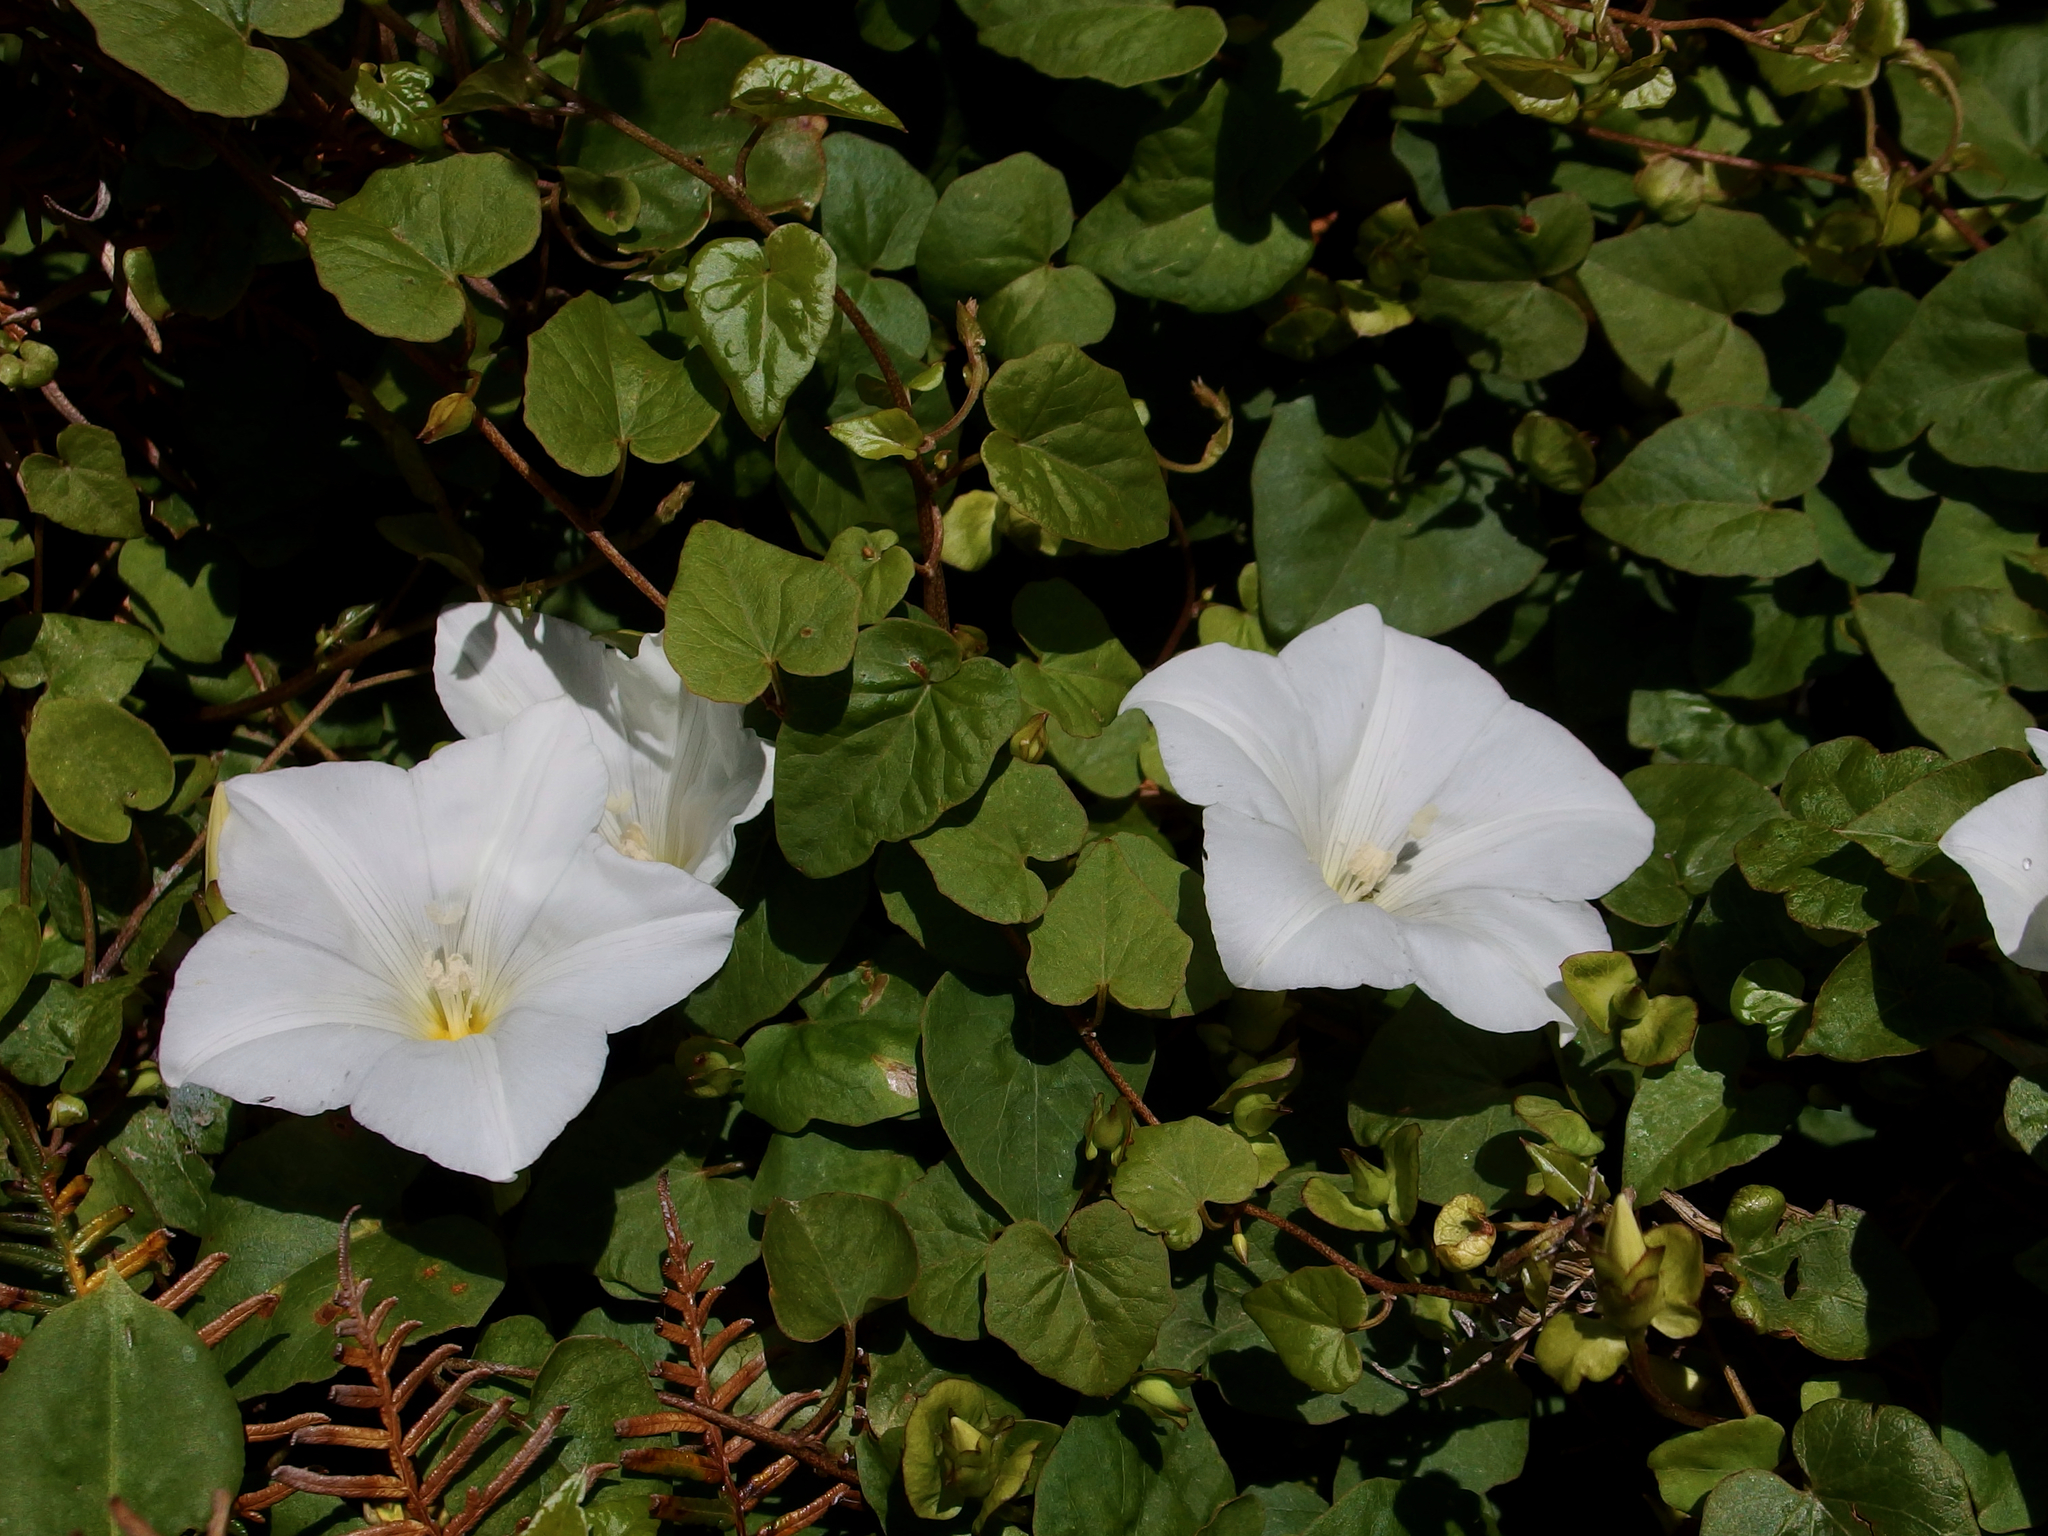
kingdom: Plantae
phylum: Tracheophyta
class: Magnoliopsida
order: Solanales
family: Convolvulaceae
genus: Calystegia
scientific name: Calystegia tuguriorum
